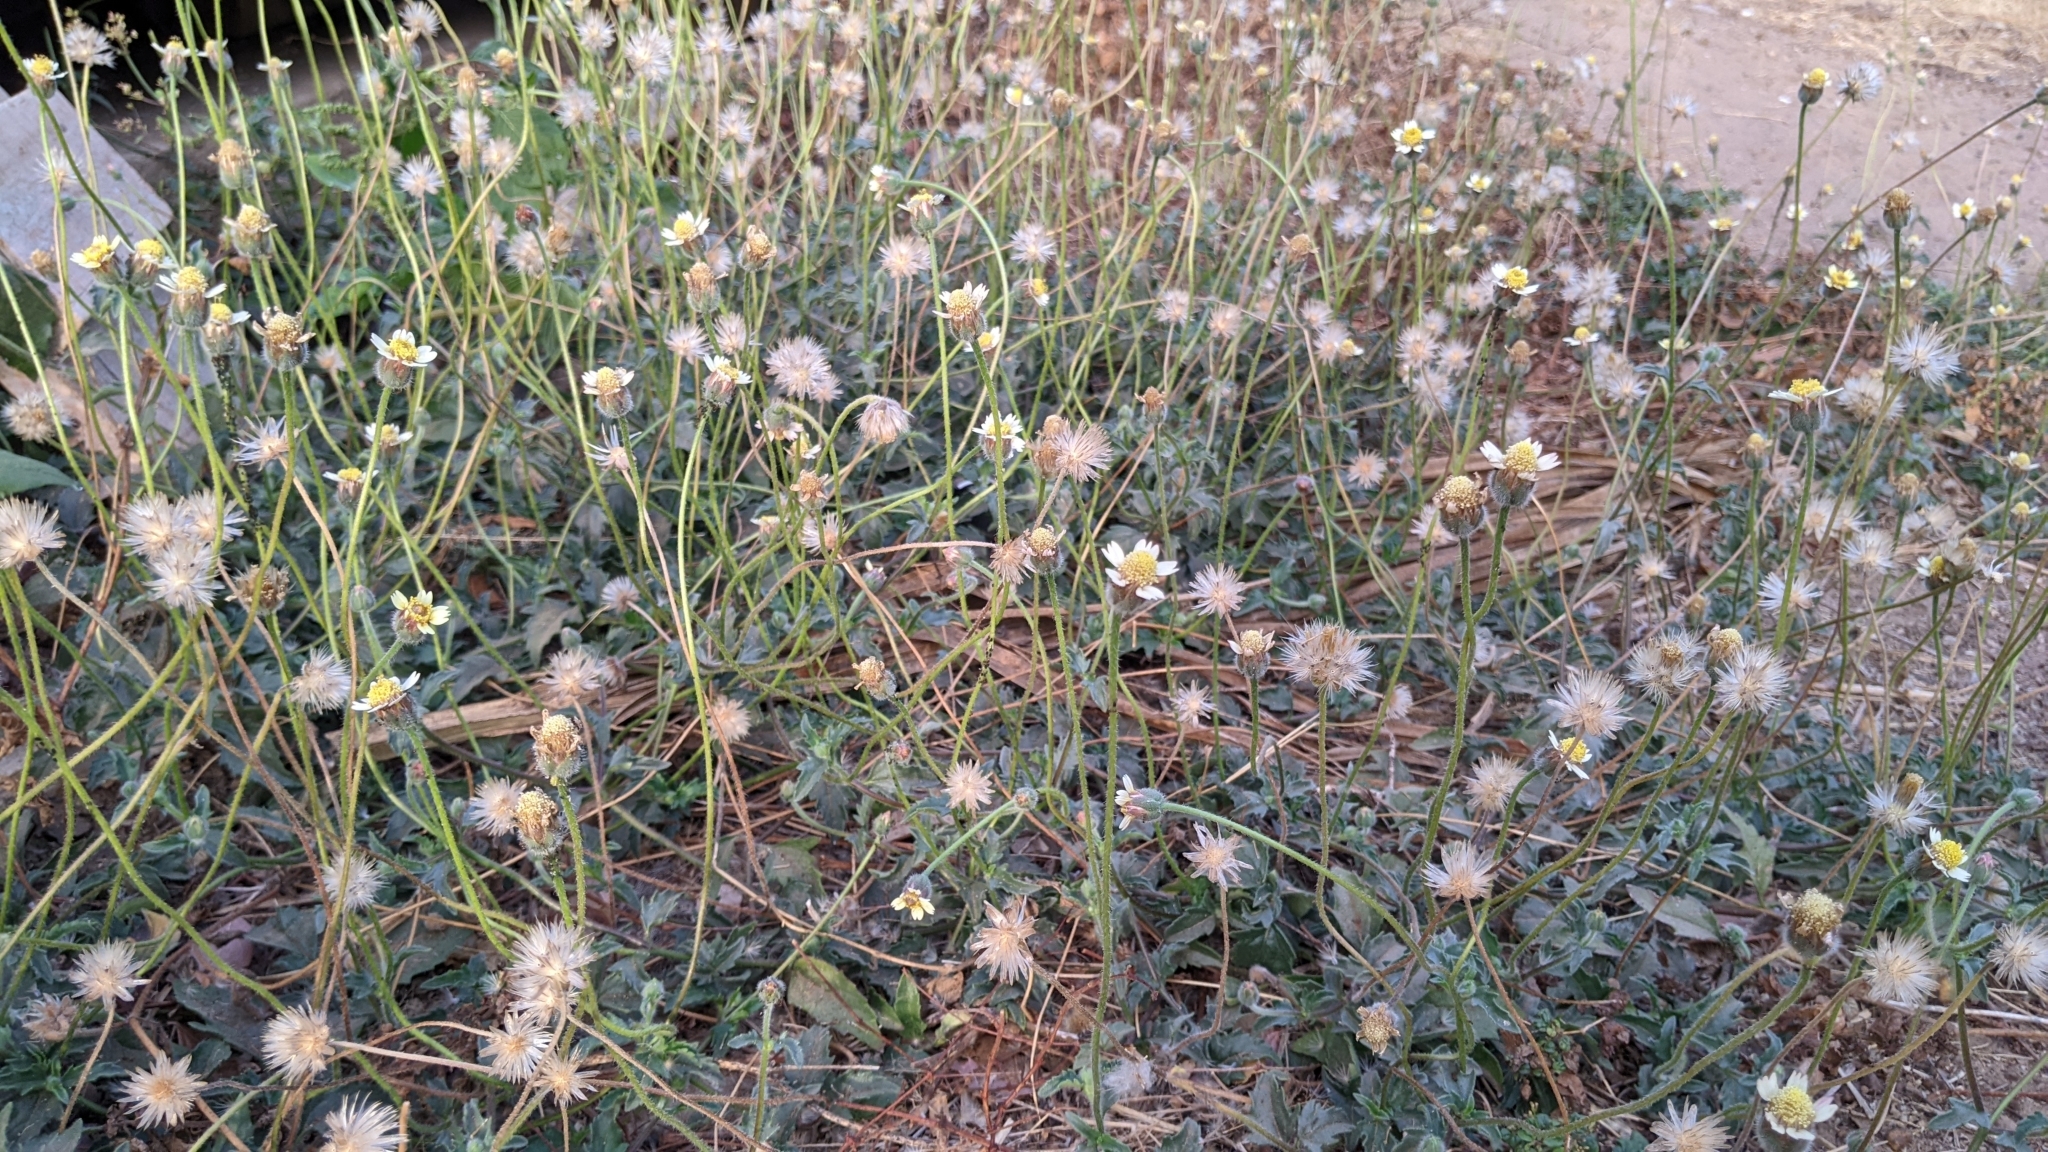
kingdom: Plantae
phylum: Tracheophyta
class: Magnoliopsida
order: Asterales
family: Asteraceae
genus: Tridax
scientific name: Tridax procumbens
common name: Coatbuttons
